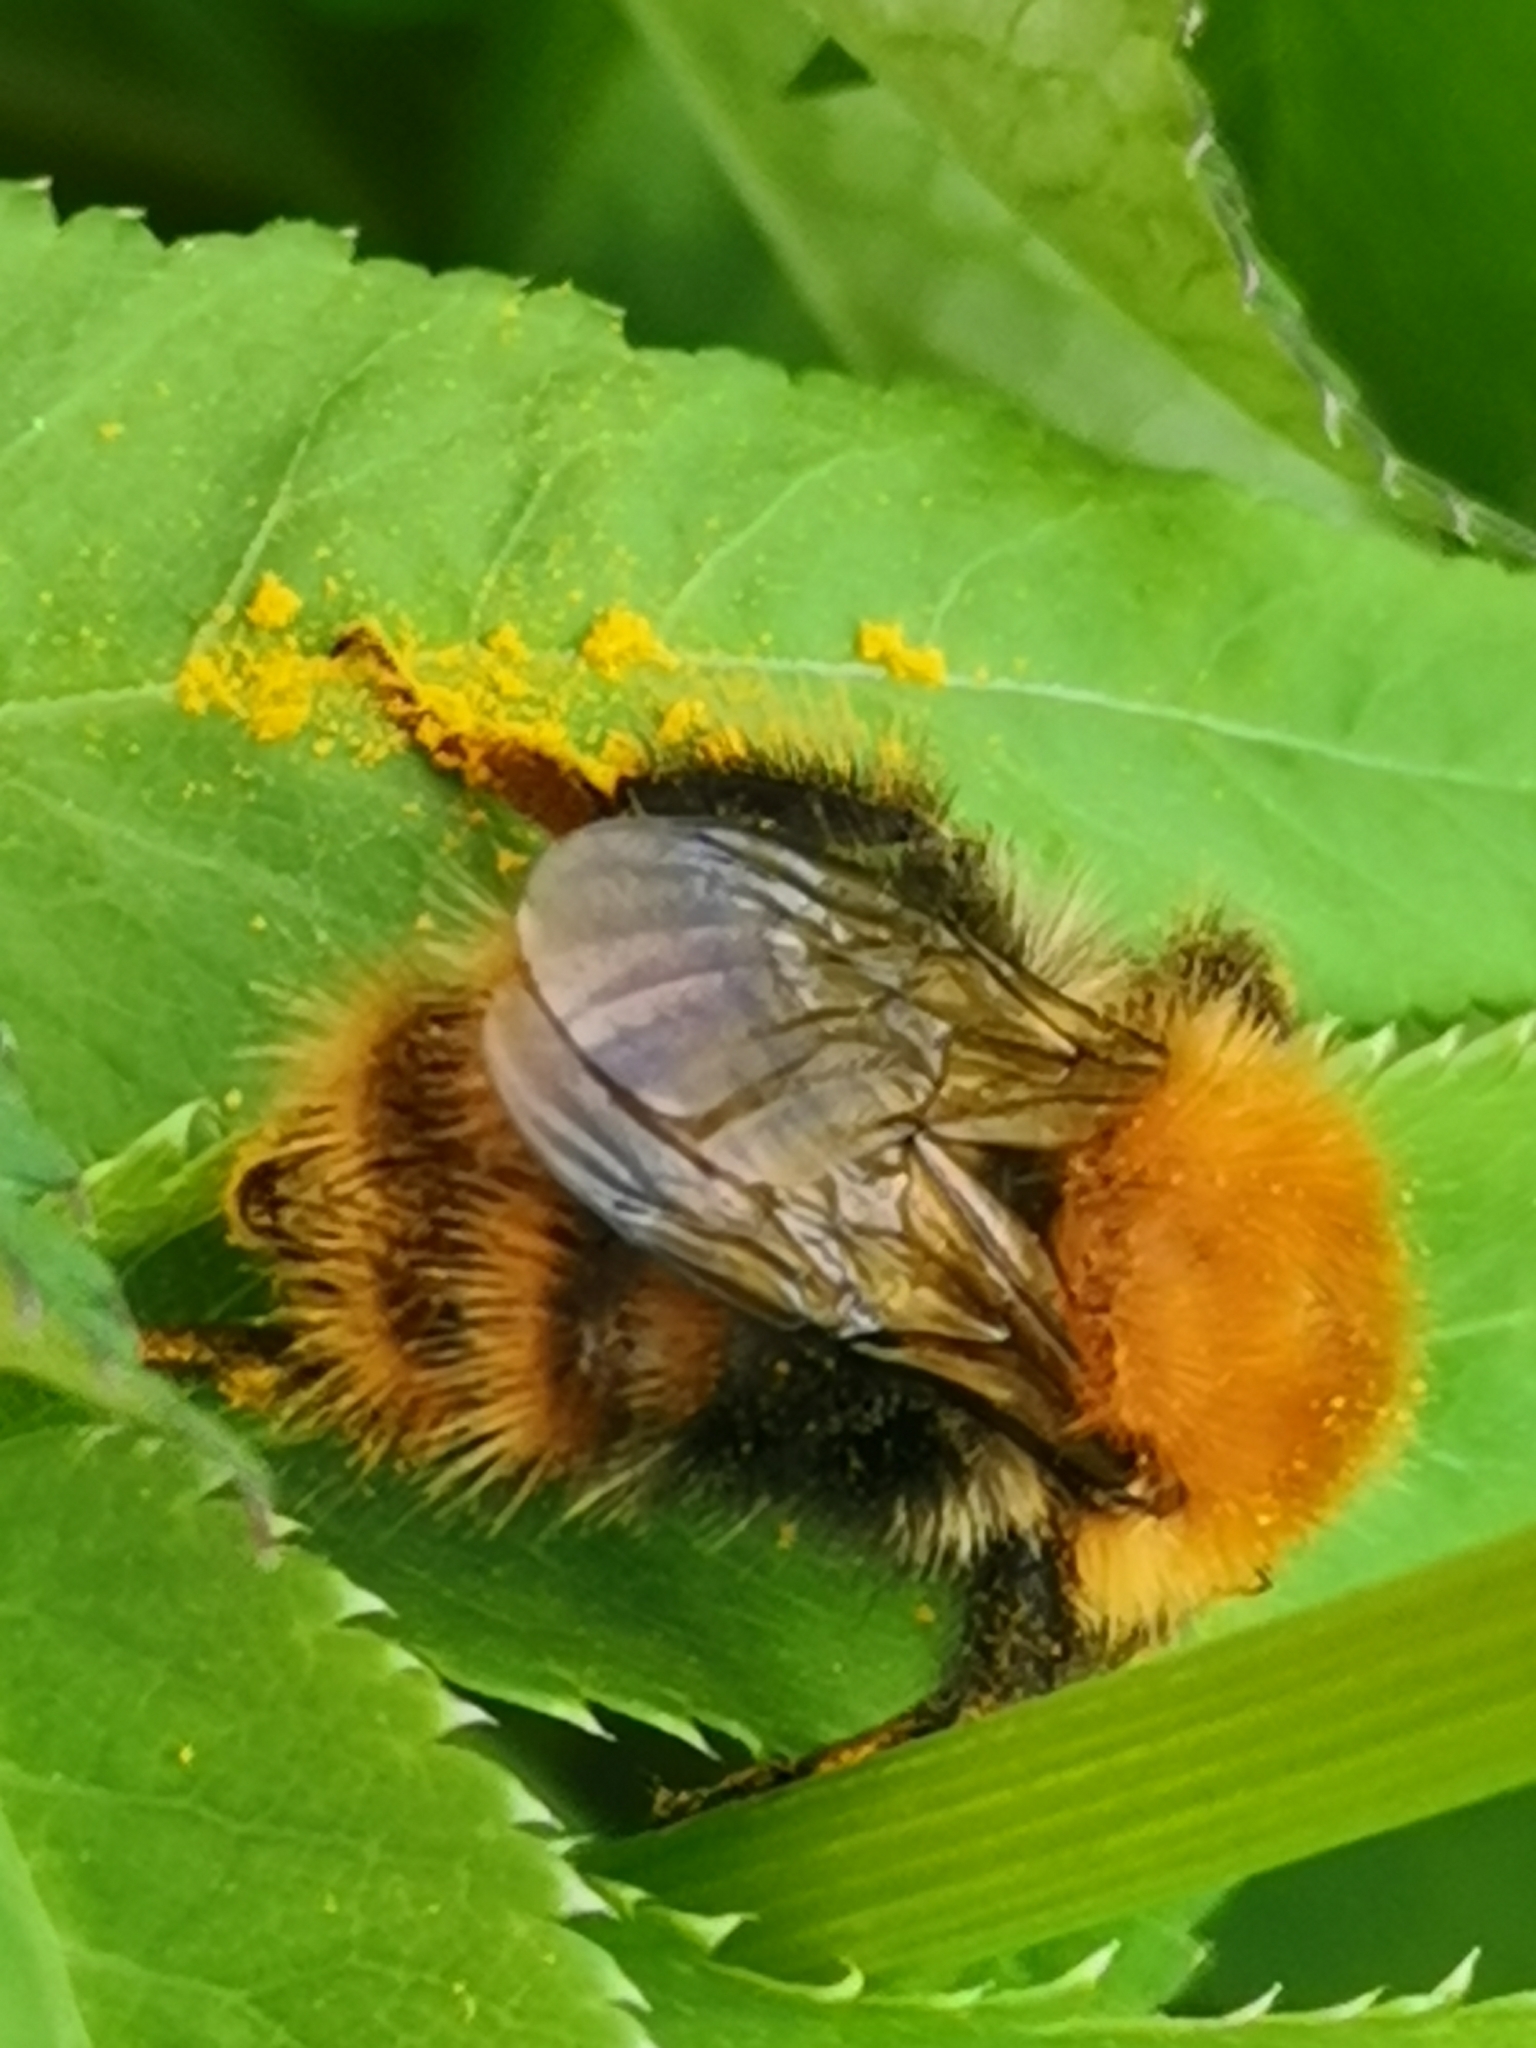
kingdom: Animalia
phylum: Arthropoda
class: Insecta
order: Hymenoptera
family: Apidae
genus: Bombus
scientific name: Bombus pascuorum
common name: Common carder bee
